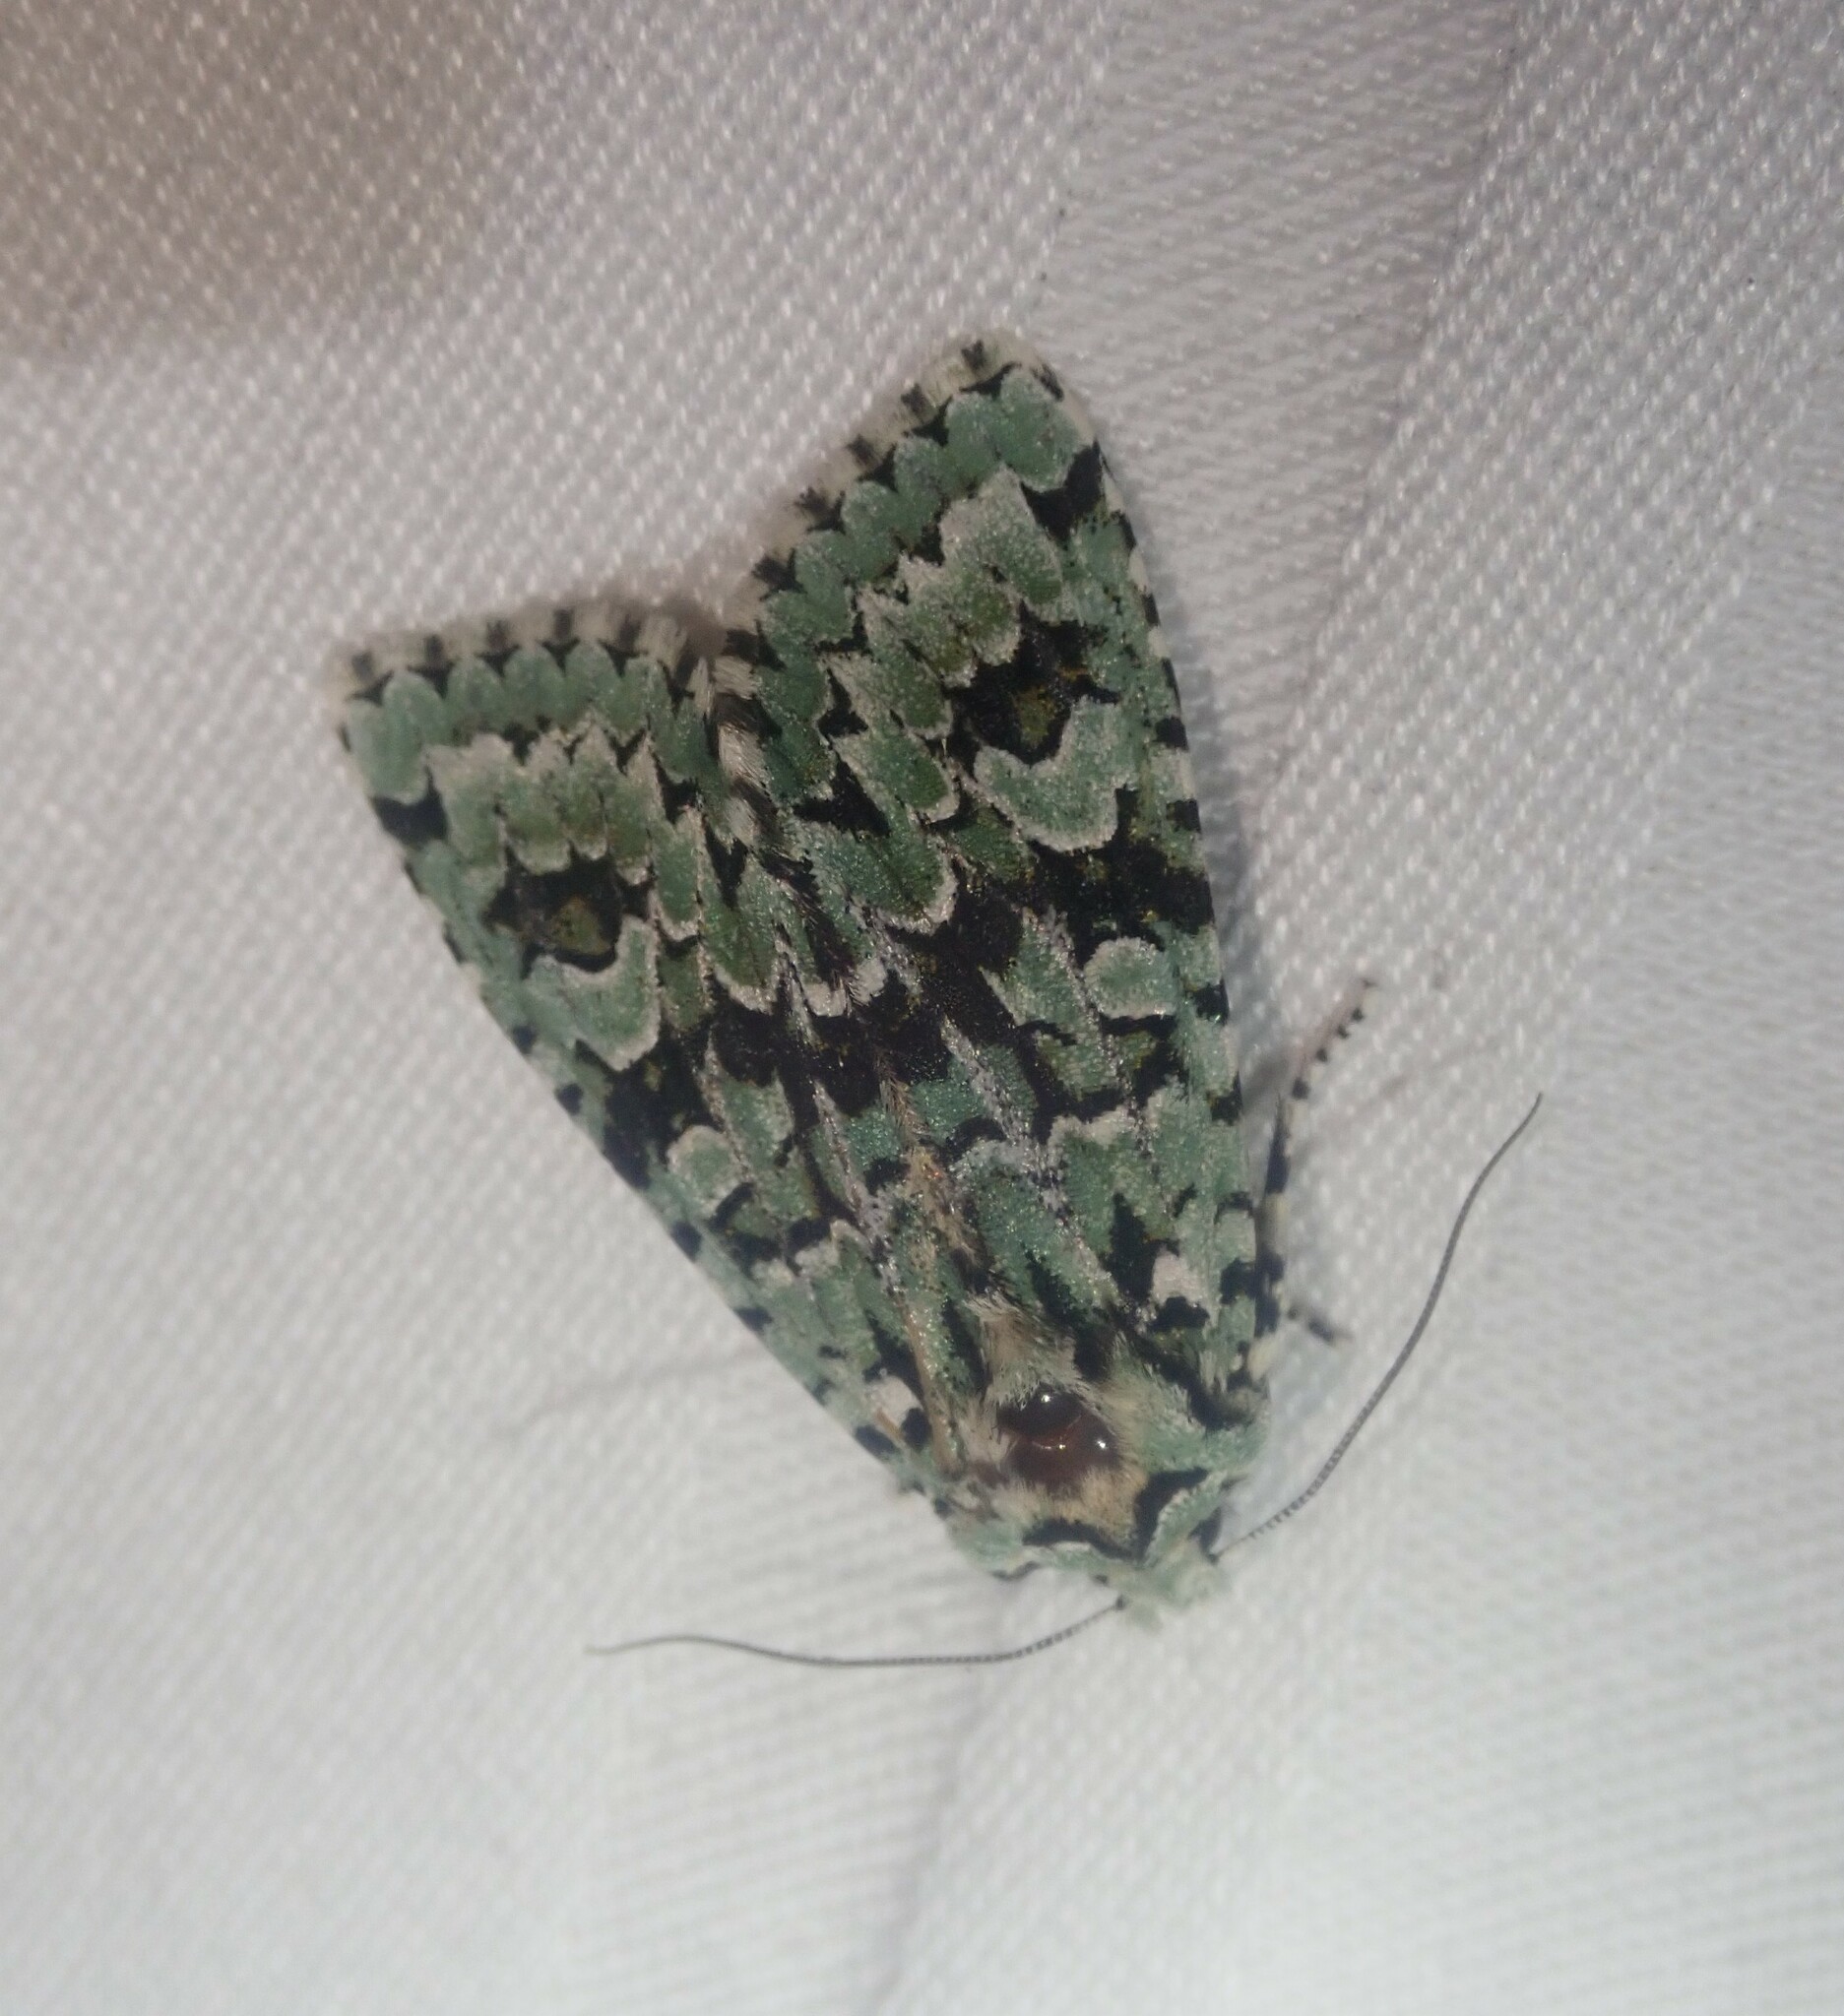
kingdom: Animalia
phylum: Arthropoda
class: Insecta
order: Lepidoptera
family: Noctuidae
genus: Griposia
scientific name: Griposia aprilina
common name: Merveille du jour
